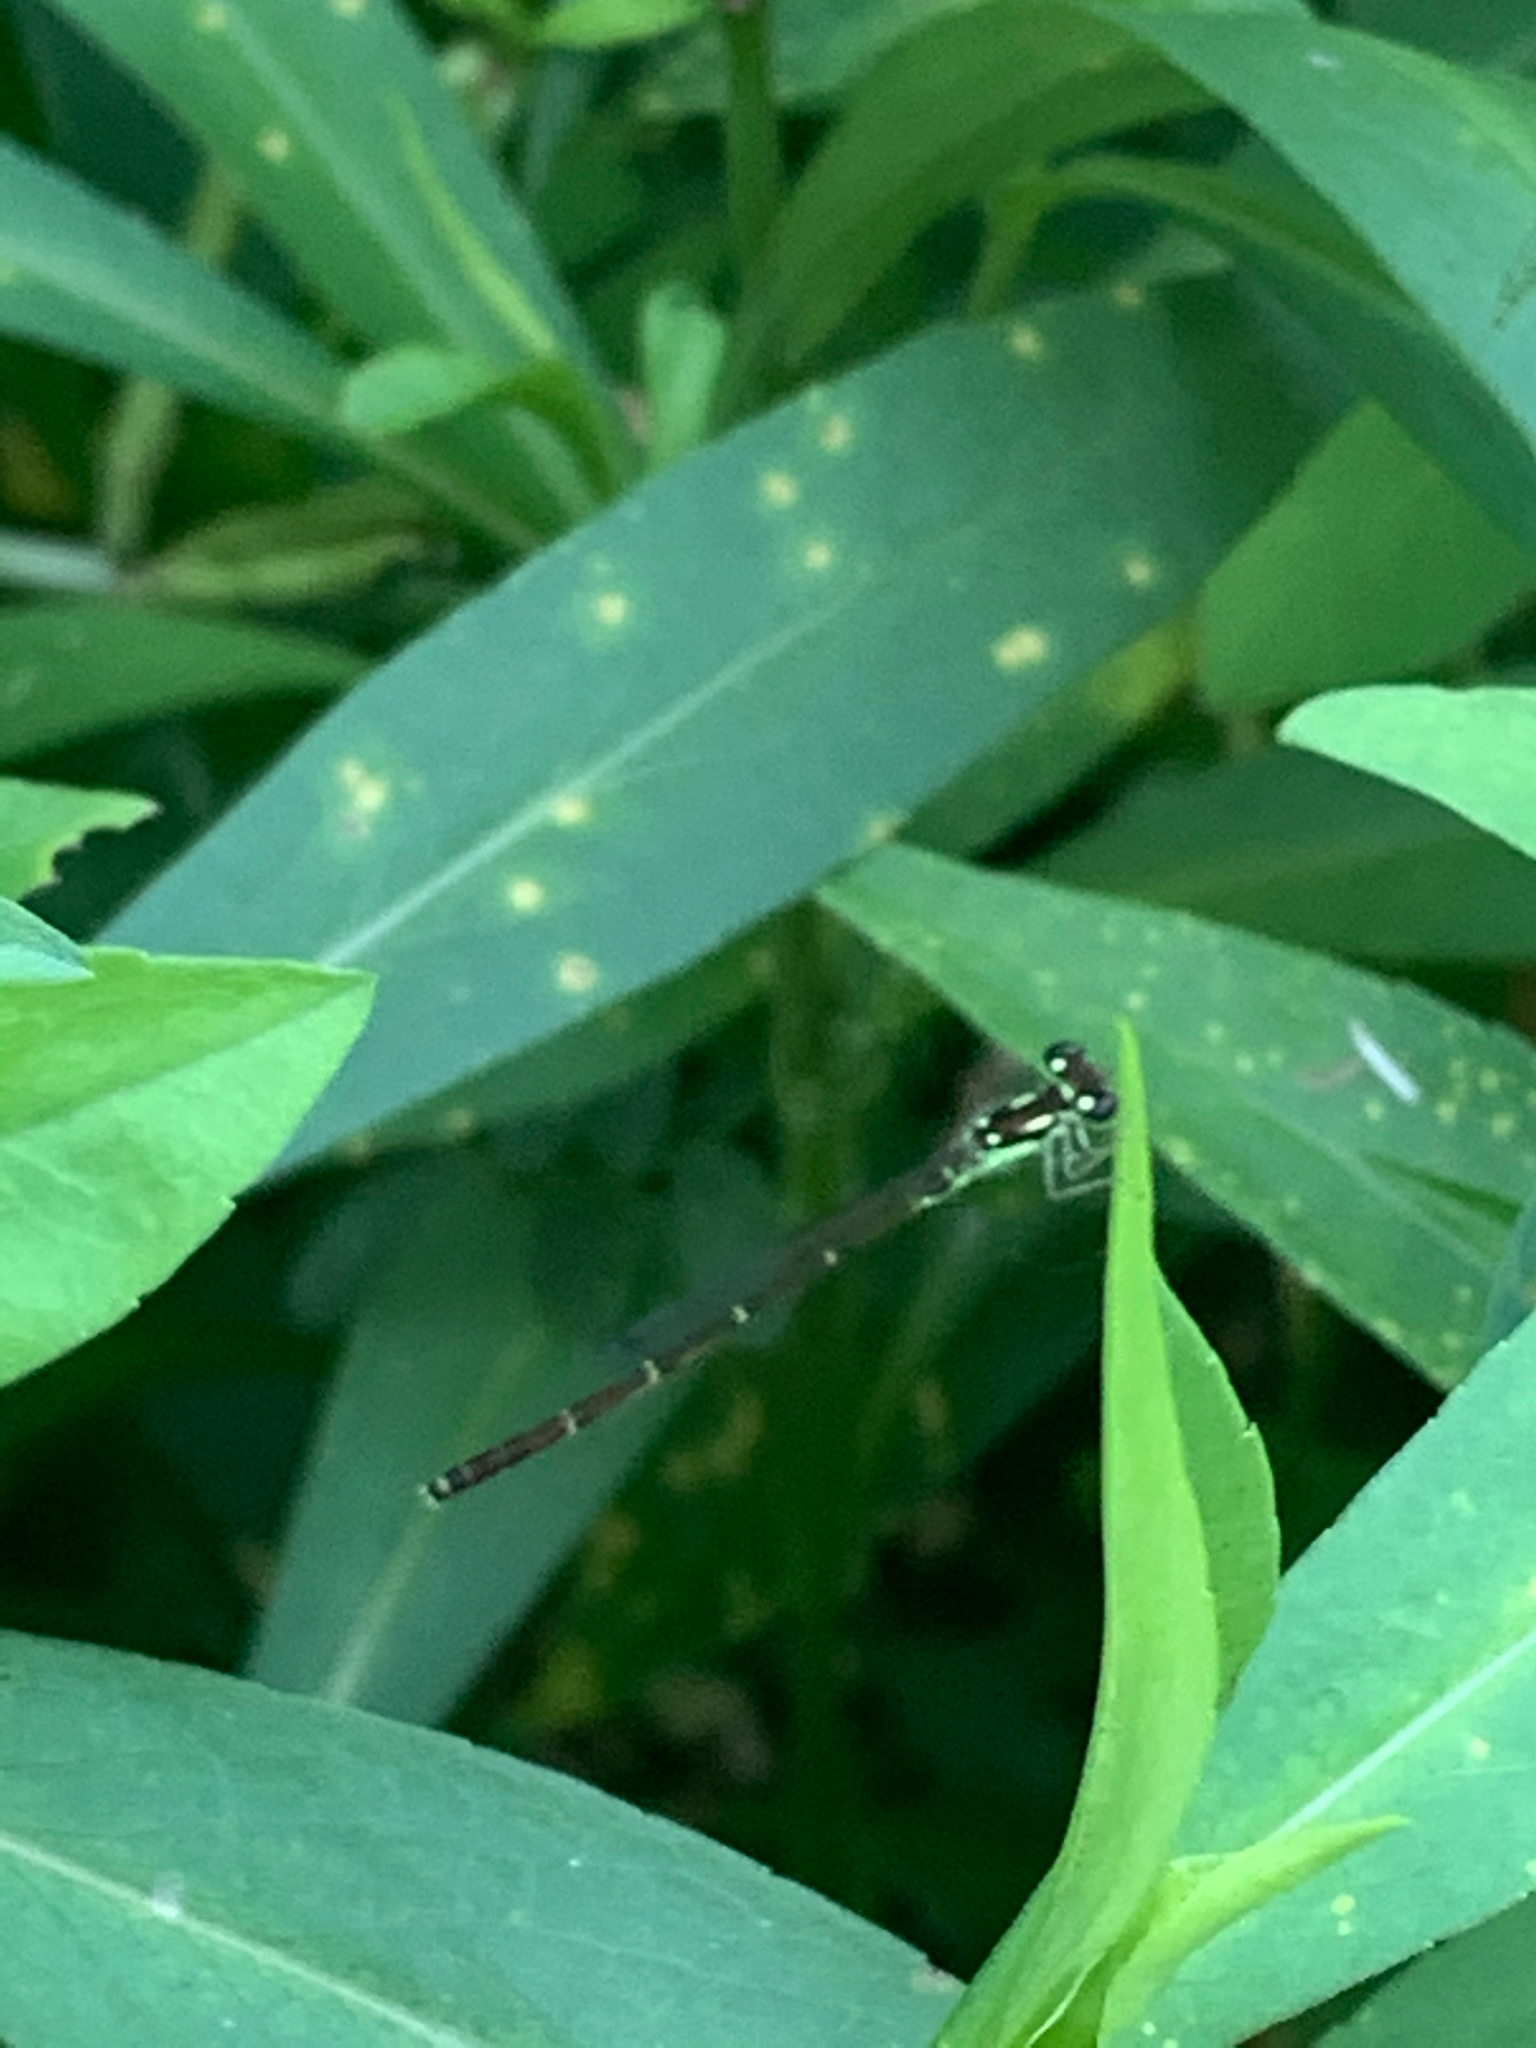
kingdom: Animalia
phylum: Arthropoda
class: Insecta
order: Odonata
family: Coenagrionidae
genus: Ischnura
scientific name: Ischnura posita
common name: Fragile forktail
